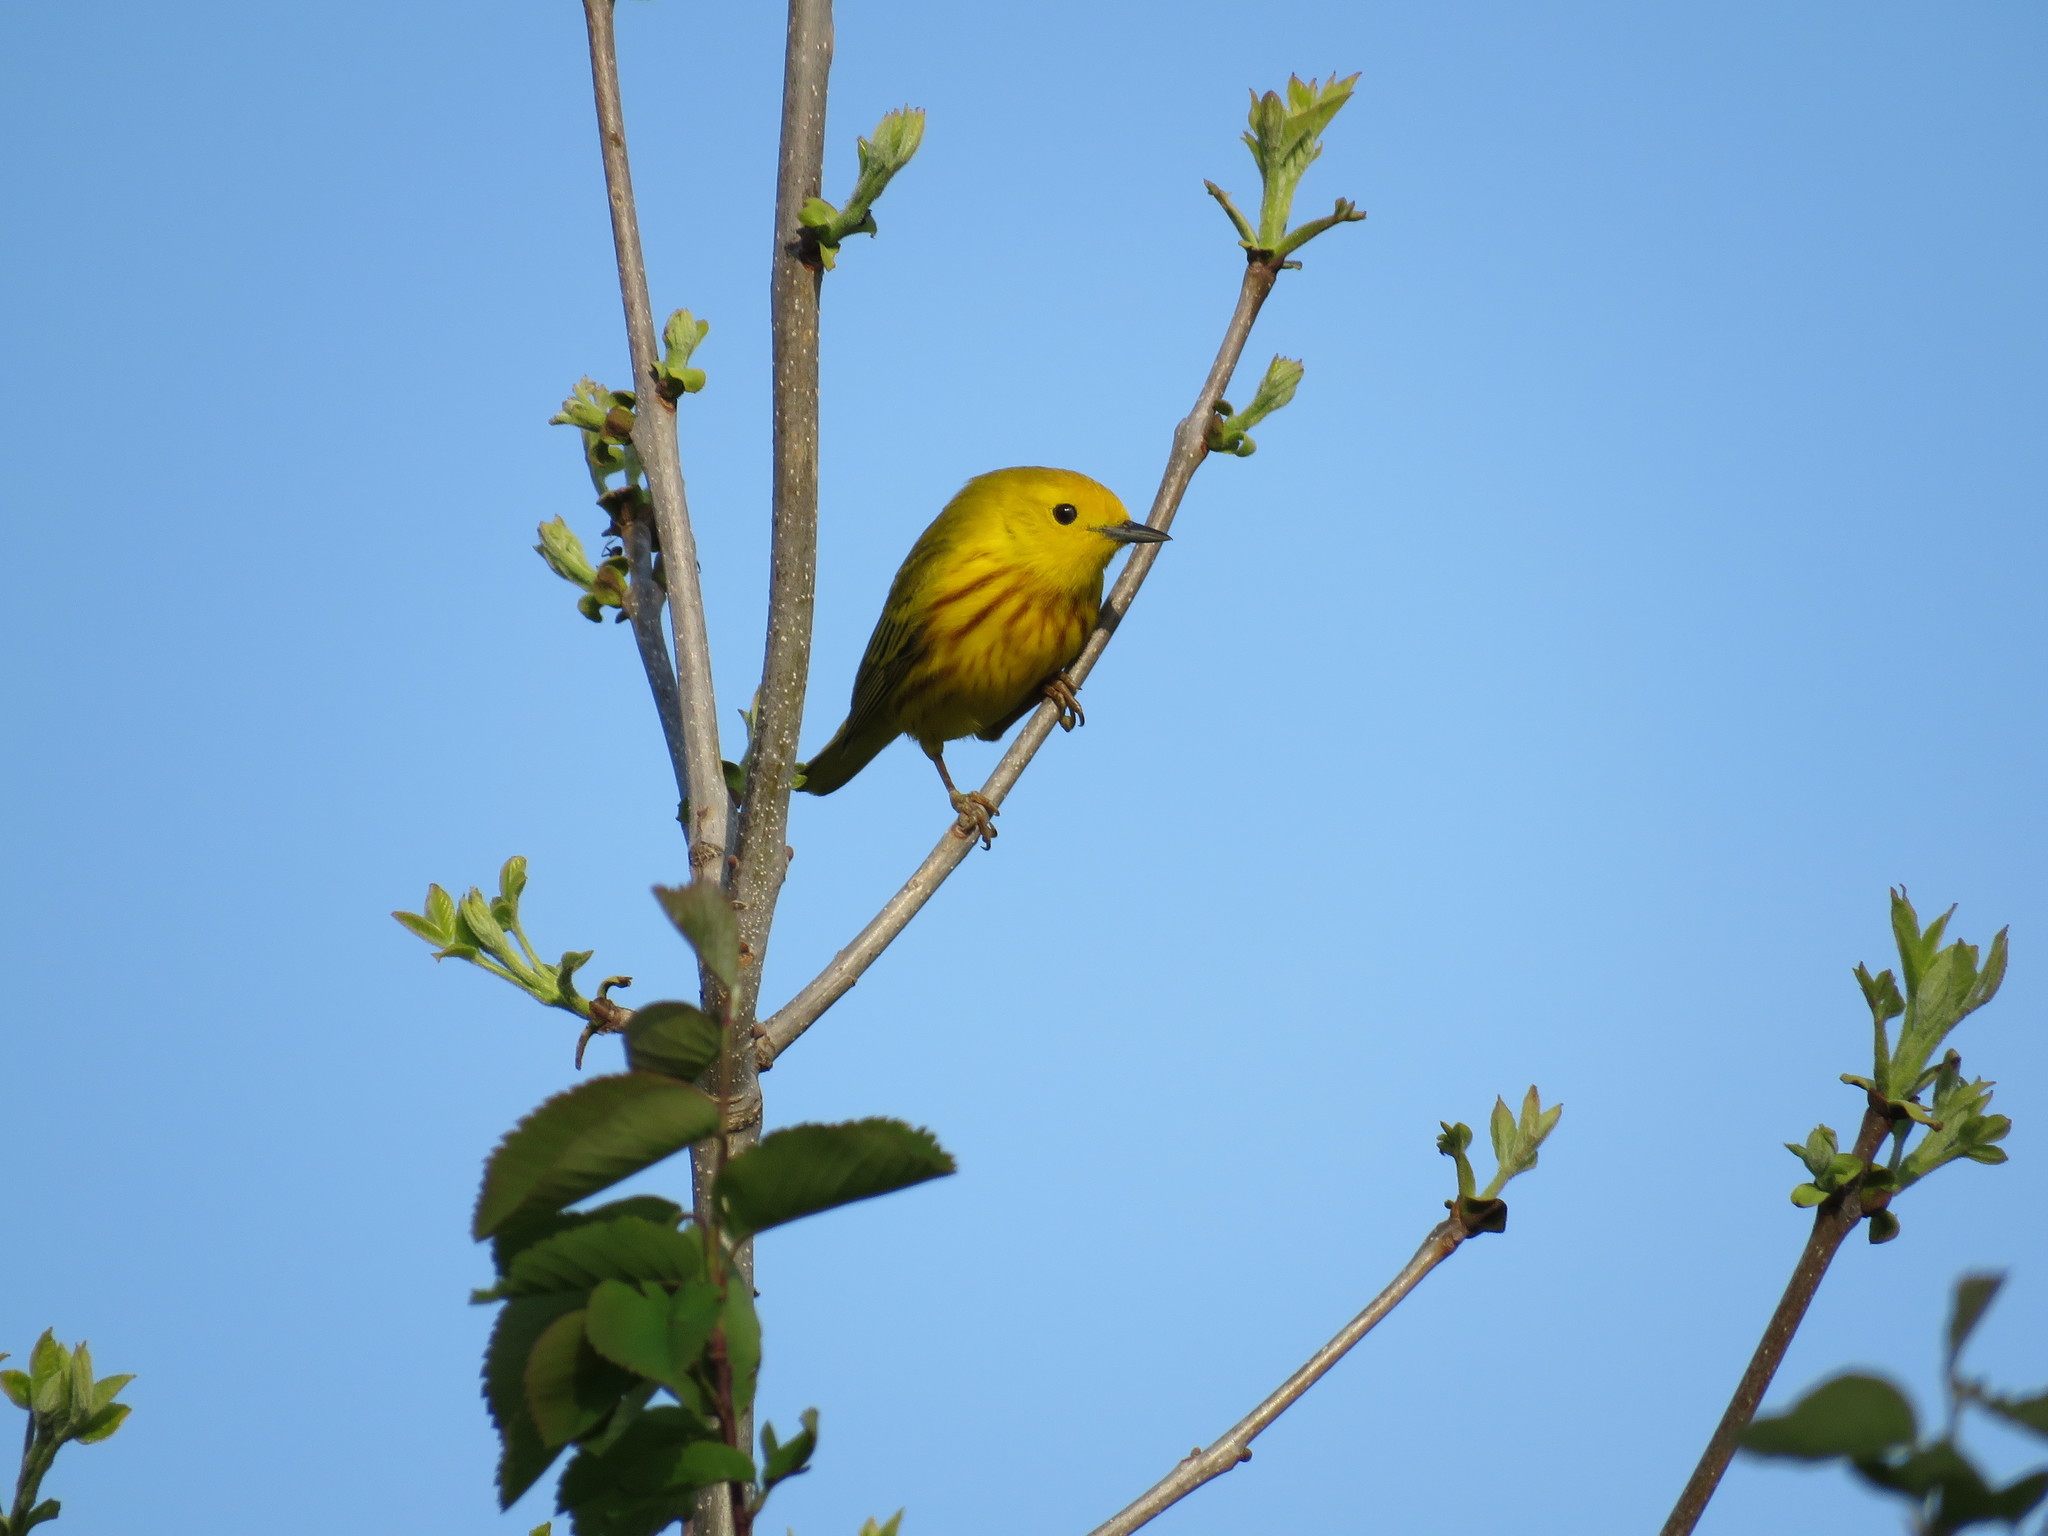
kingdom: Animalia
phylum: Chordata
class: Aves
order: Passeriformes
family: Parulidae
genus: Setophaga
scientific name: Setophaga petechia
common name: Yellow warbler
